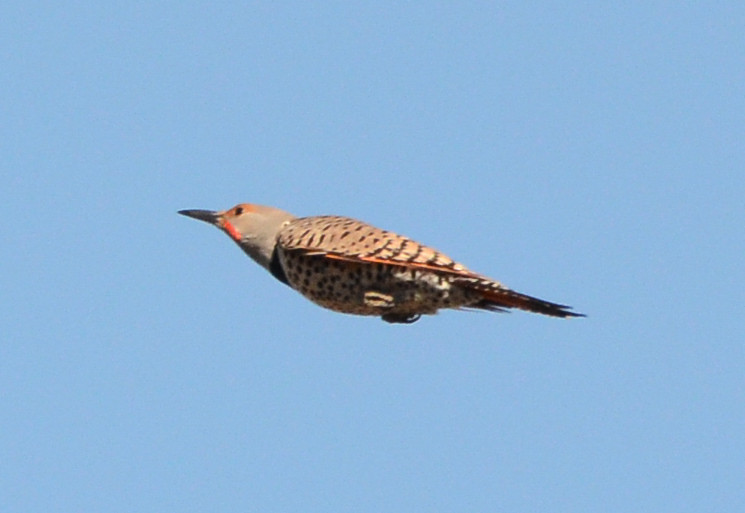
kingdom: Animalia
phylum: Chordata
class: Aves
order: Piciformes
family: Picidae
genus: Colaptes
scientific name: Colaptes auratus
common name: Northern flicker
